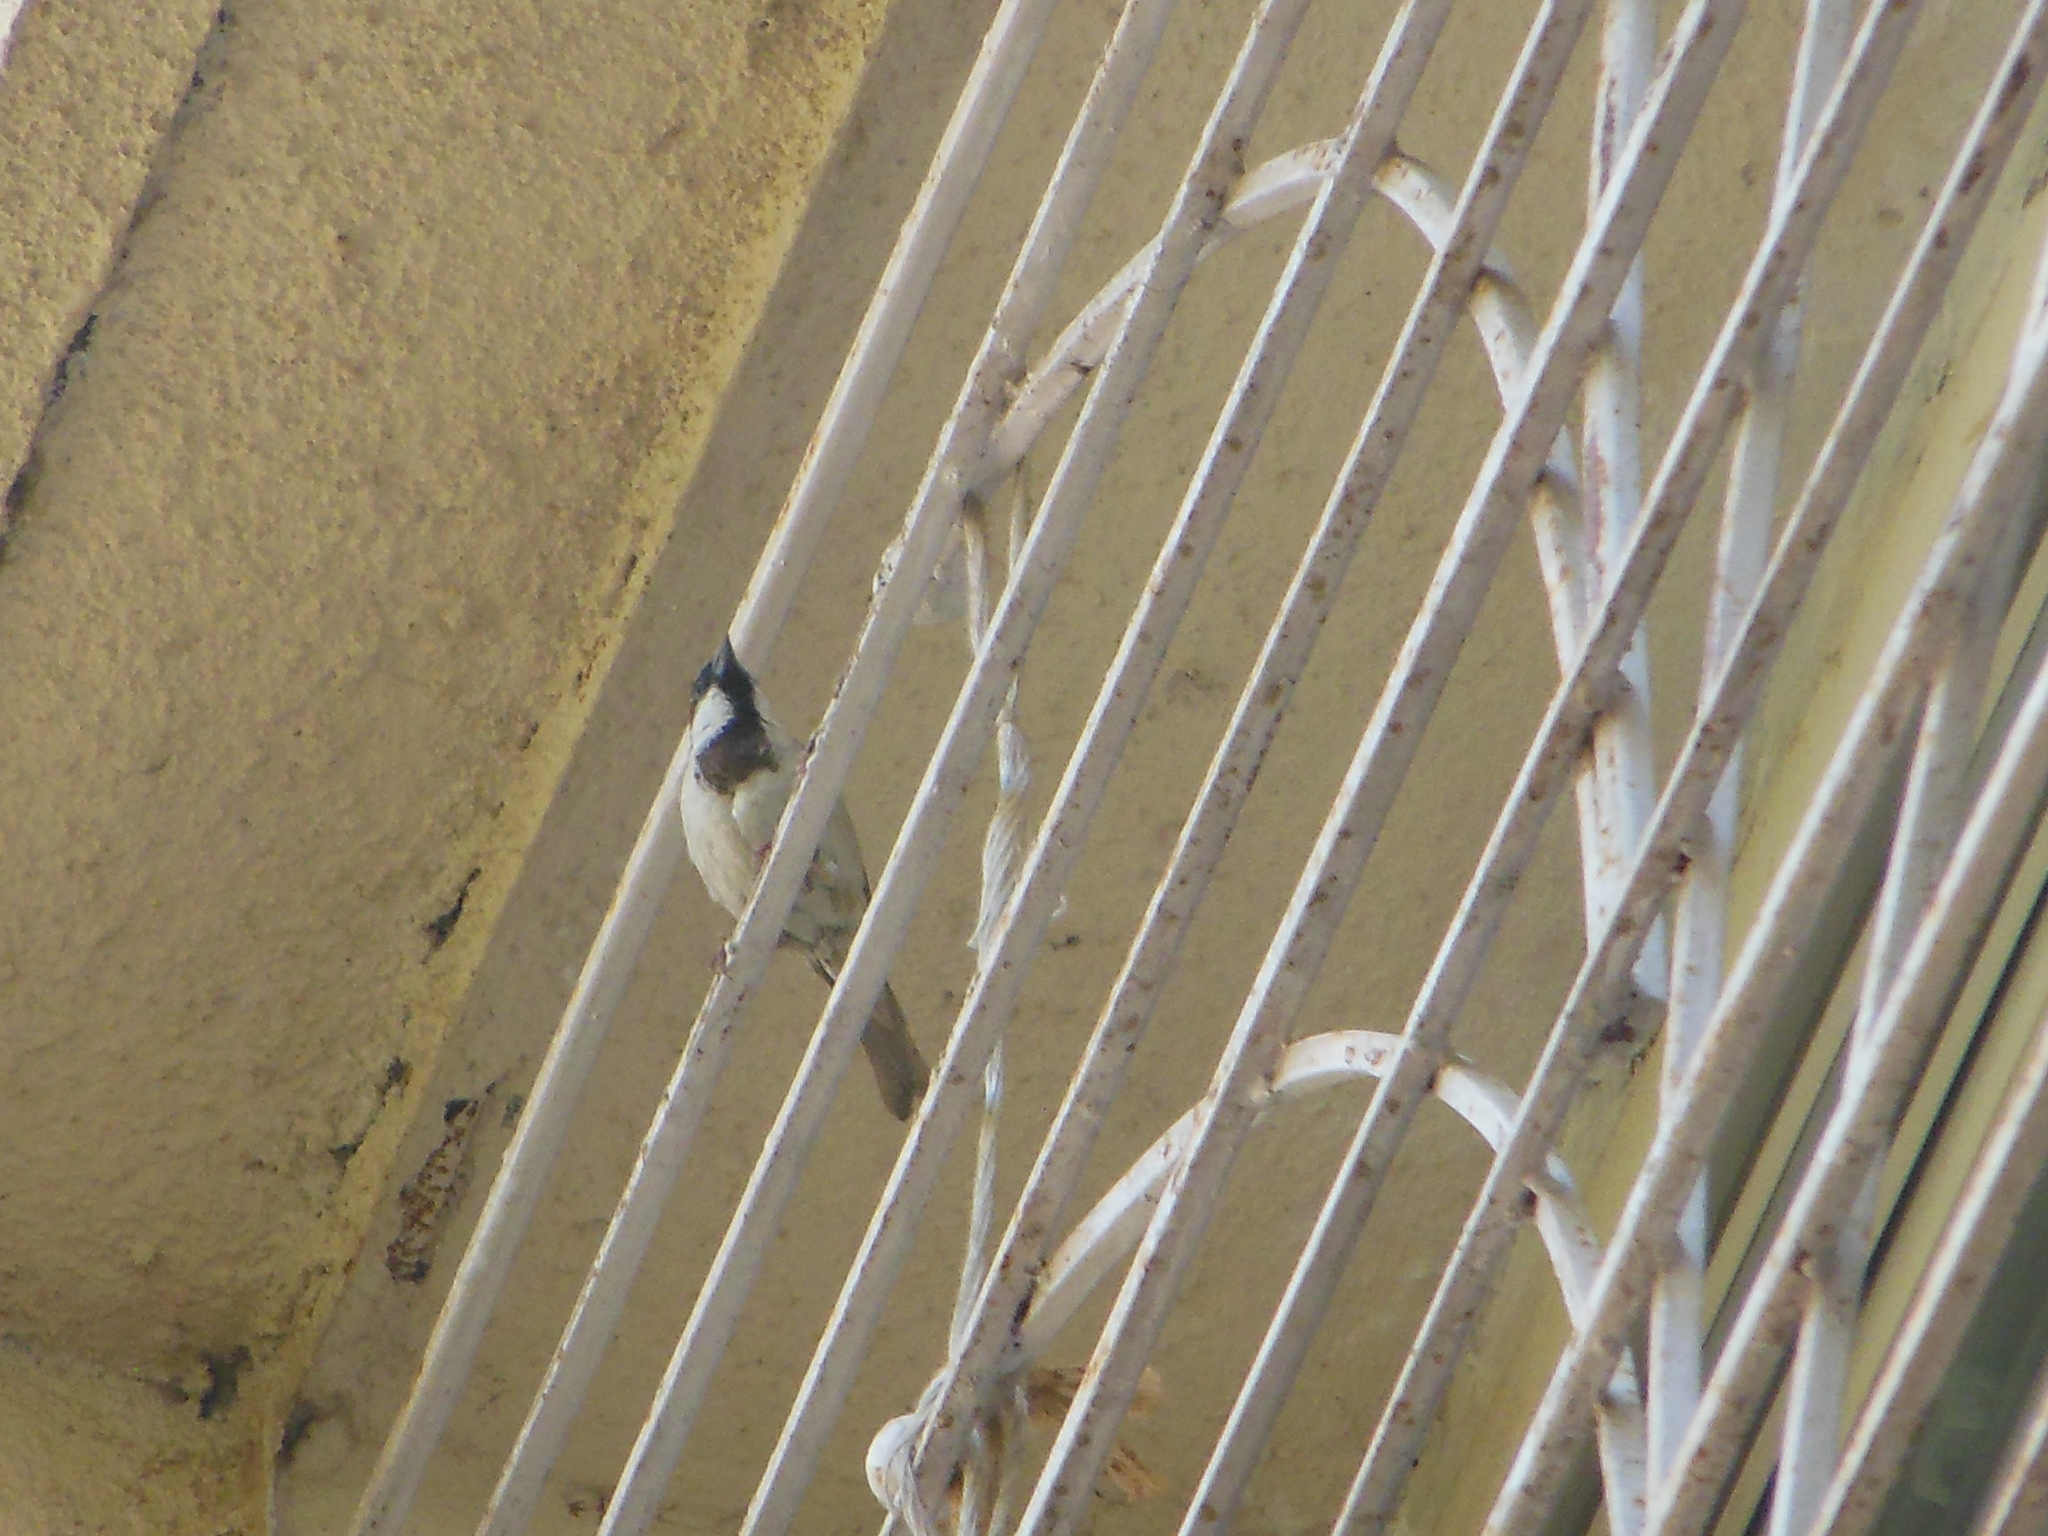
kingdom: Animalia
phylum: Chordata
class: Aves
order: Passeriformes
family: Passeridae
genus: Passer
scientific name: Passer domesticus
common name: House sparrow
